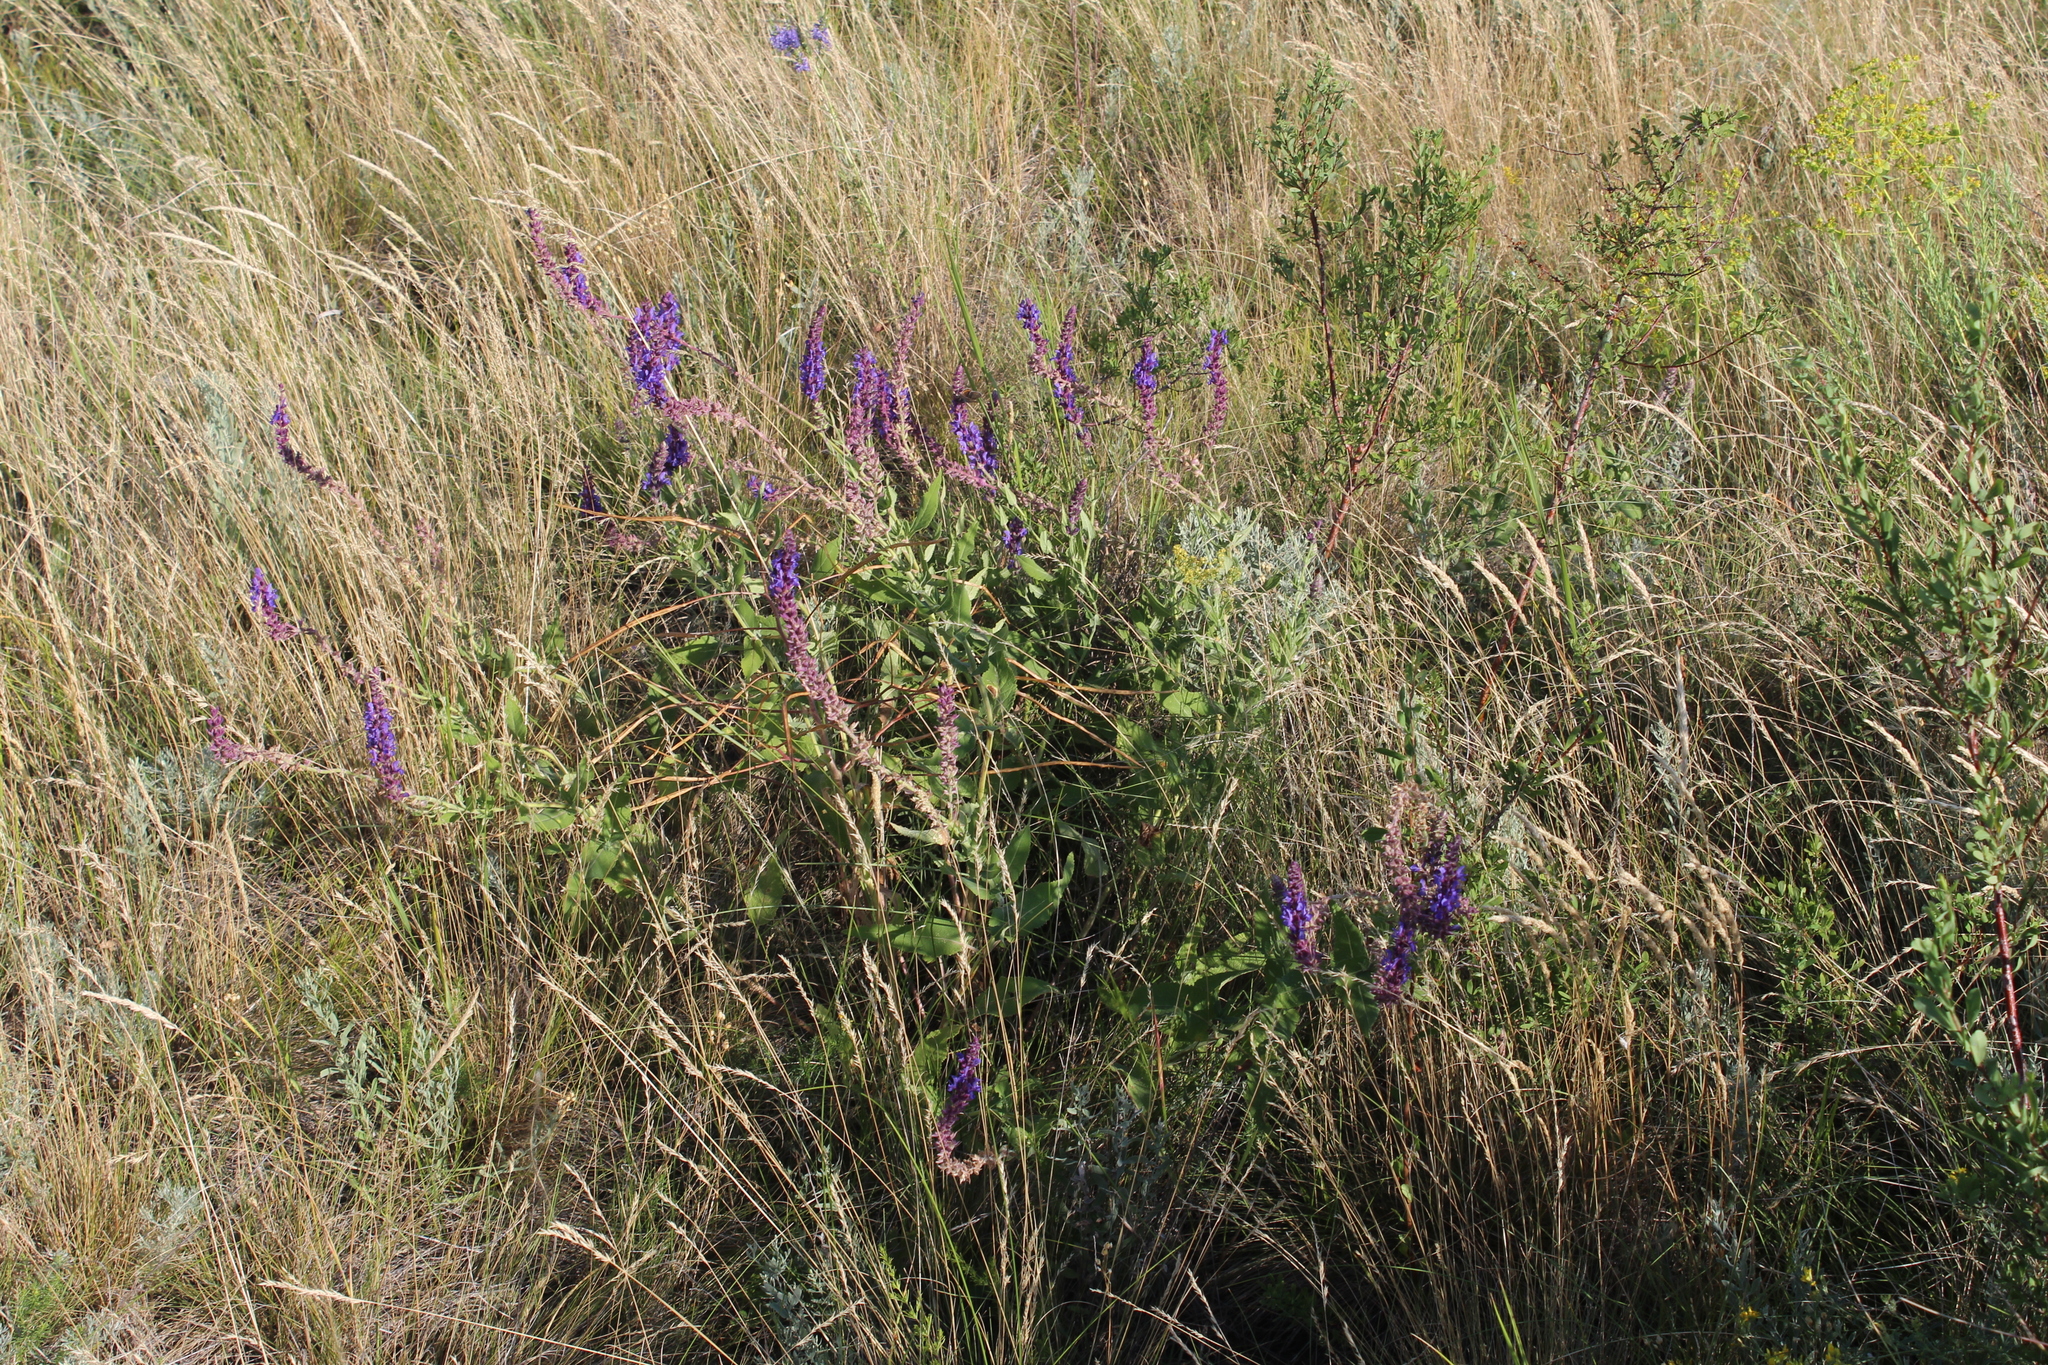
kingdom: Plantae
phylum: Tracheophyta
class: Magnoliopsida
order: Lamiales
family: Lamiaceae
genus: Salvia
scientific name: Salvia nemorosa
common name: Balkan clary
